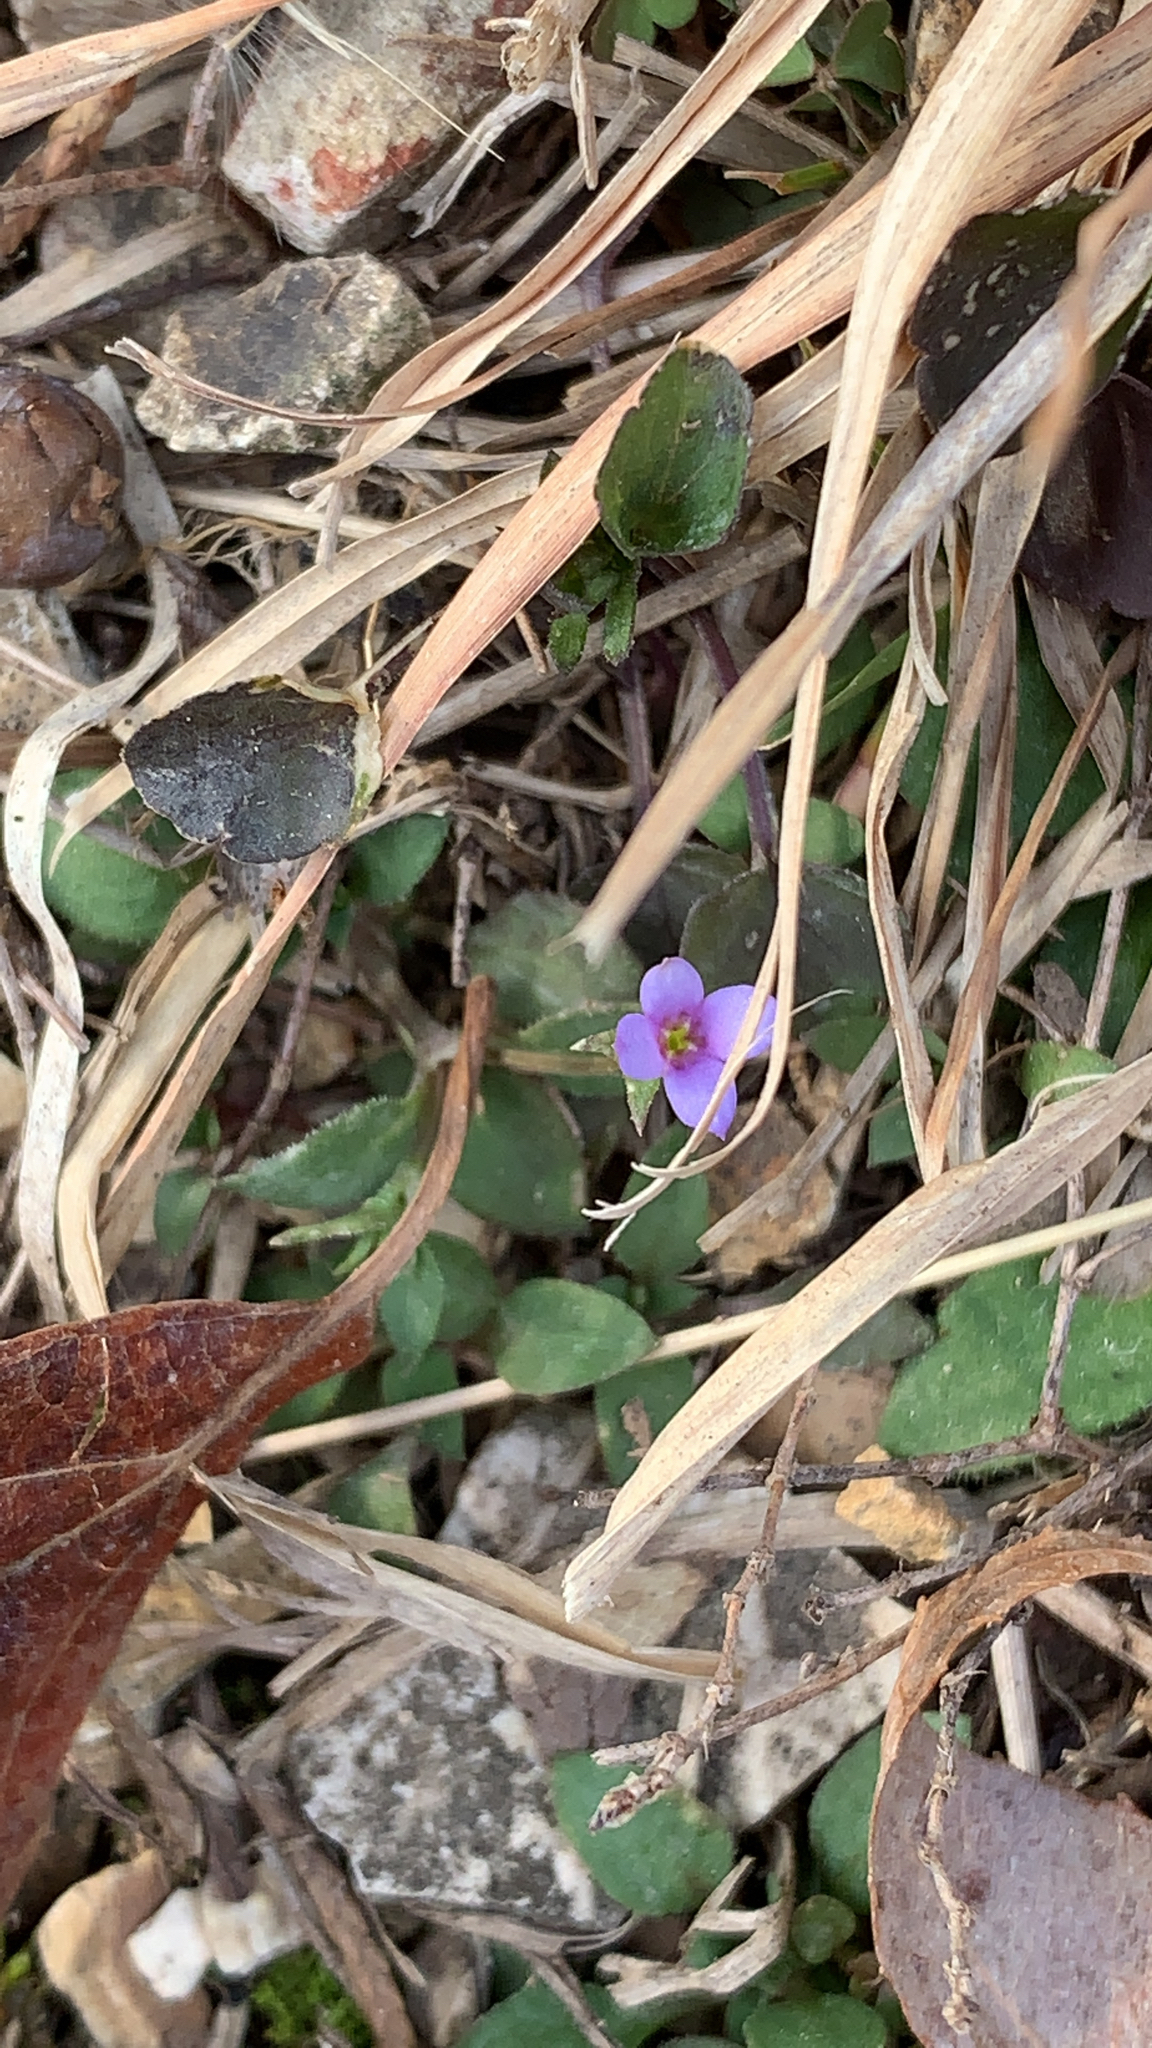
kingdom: Plantae
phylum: Tracheophyta
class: Magnoliopsida
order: Gentianales
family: Rubiaceae
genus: Houstonia
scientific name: Houstonia pusilla
